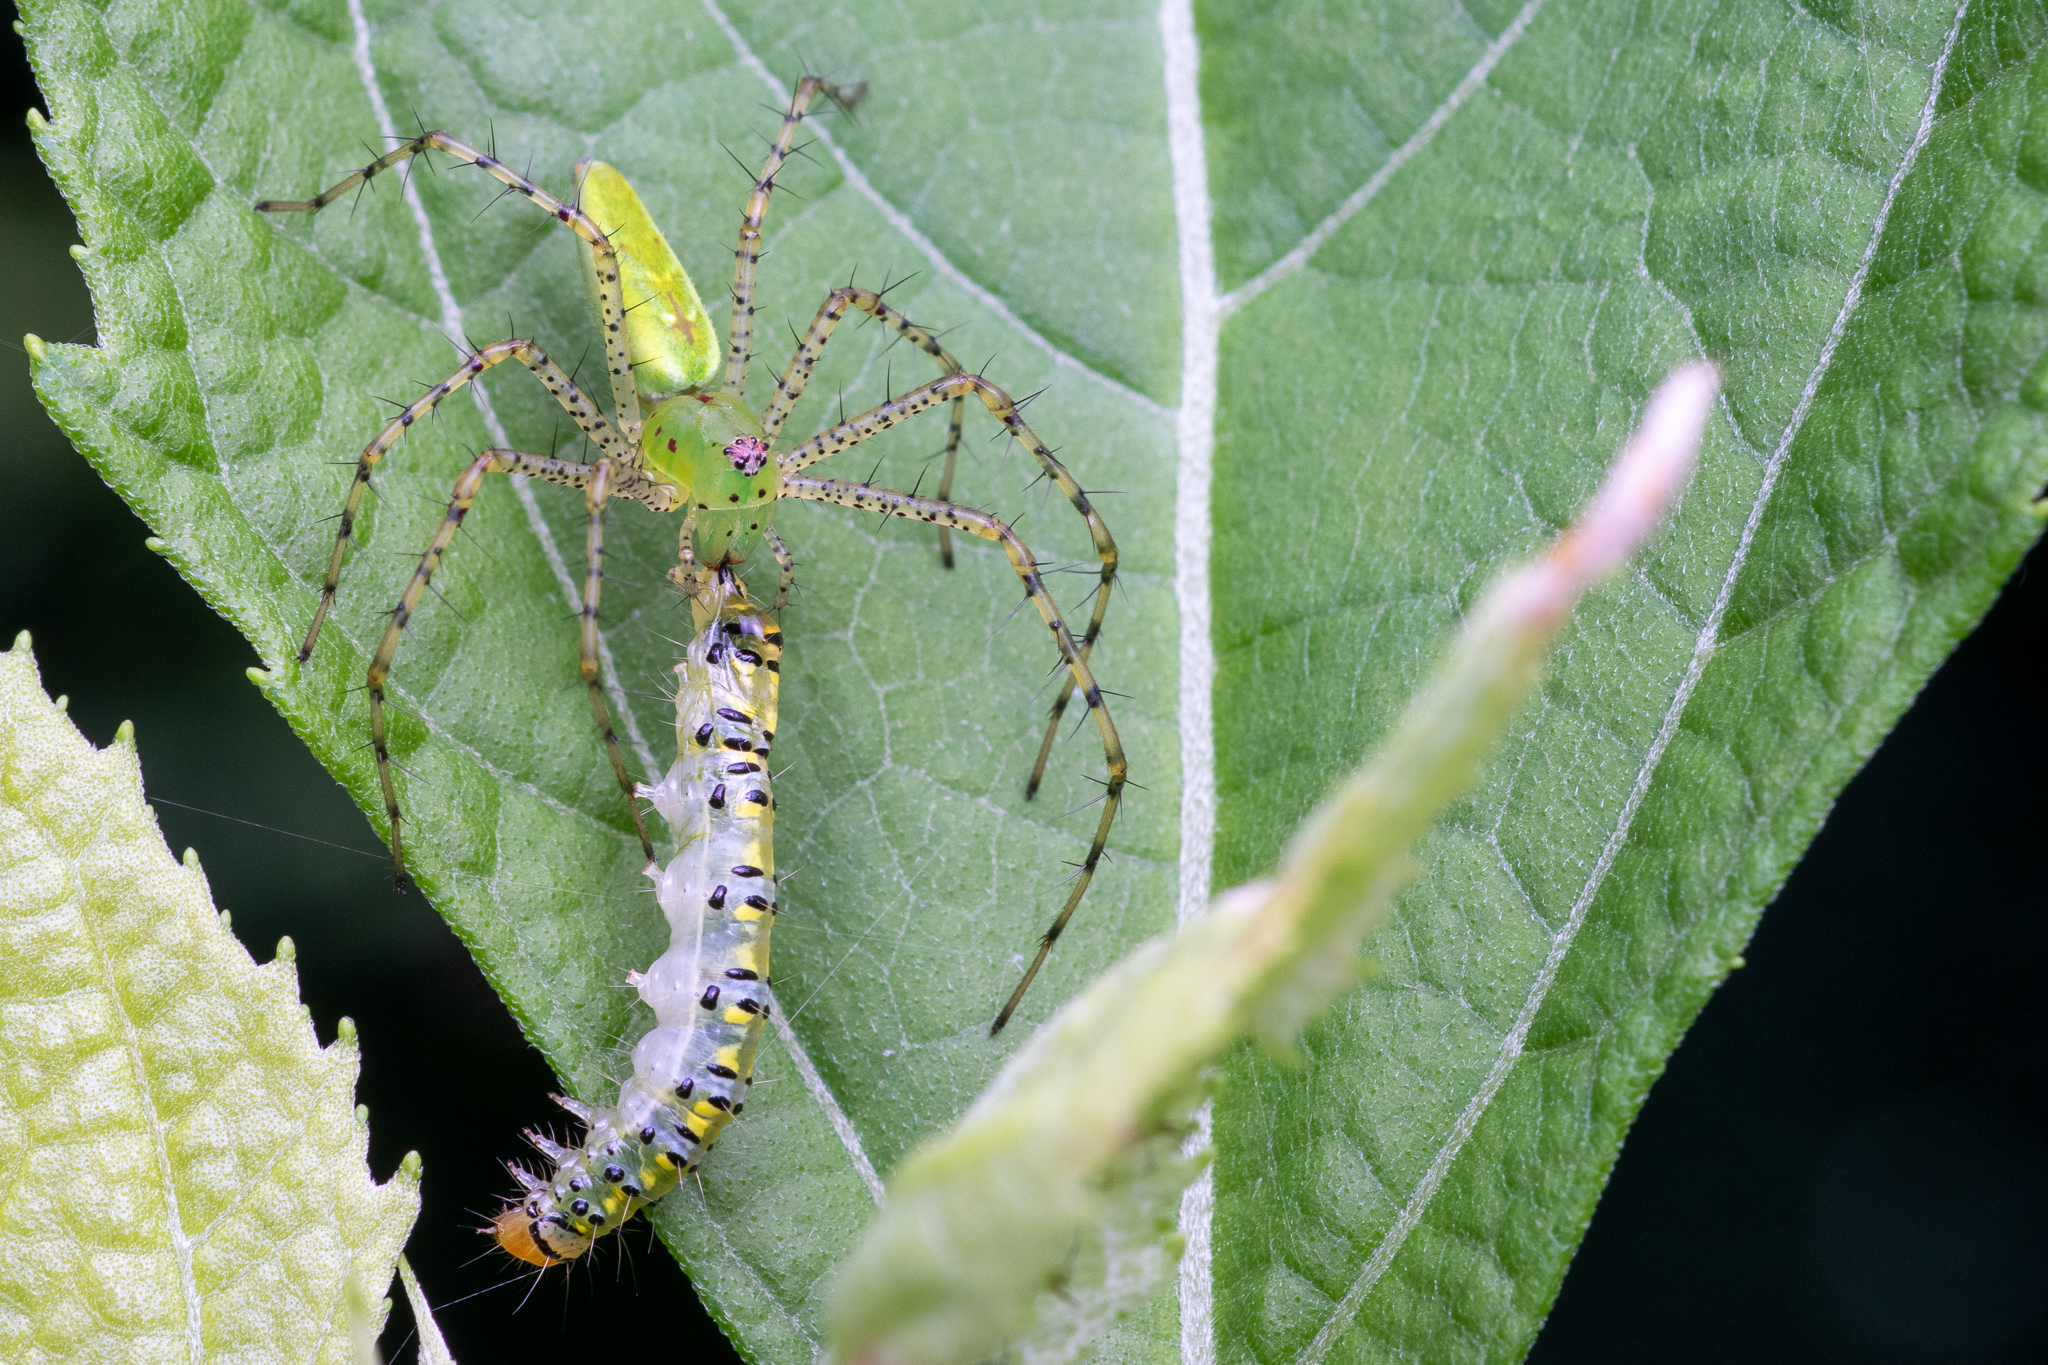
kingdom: Animalia
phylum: Arthropoda
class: Arachnida
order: Araneae
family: Oxyopidae
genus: Peucetia
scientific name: Peucetia viridans
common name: Lynx spiders
